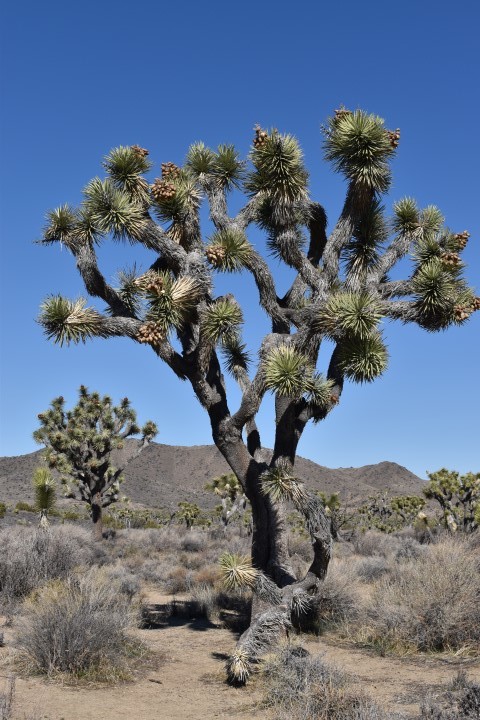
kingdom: Plantae
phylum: Tracheophyta
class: Liliopsida
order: Asparagales
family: Asparagaceae
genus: Yucca
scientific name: Yucca brevifolia
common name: Joshua tree
